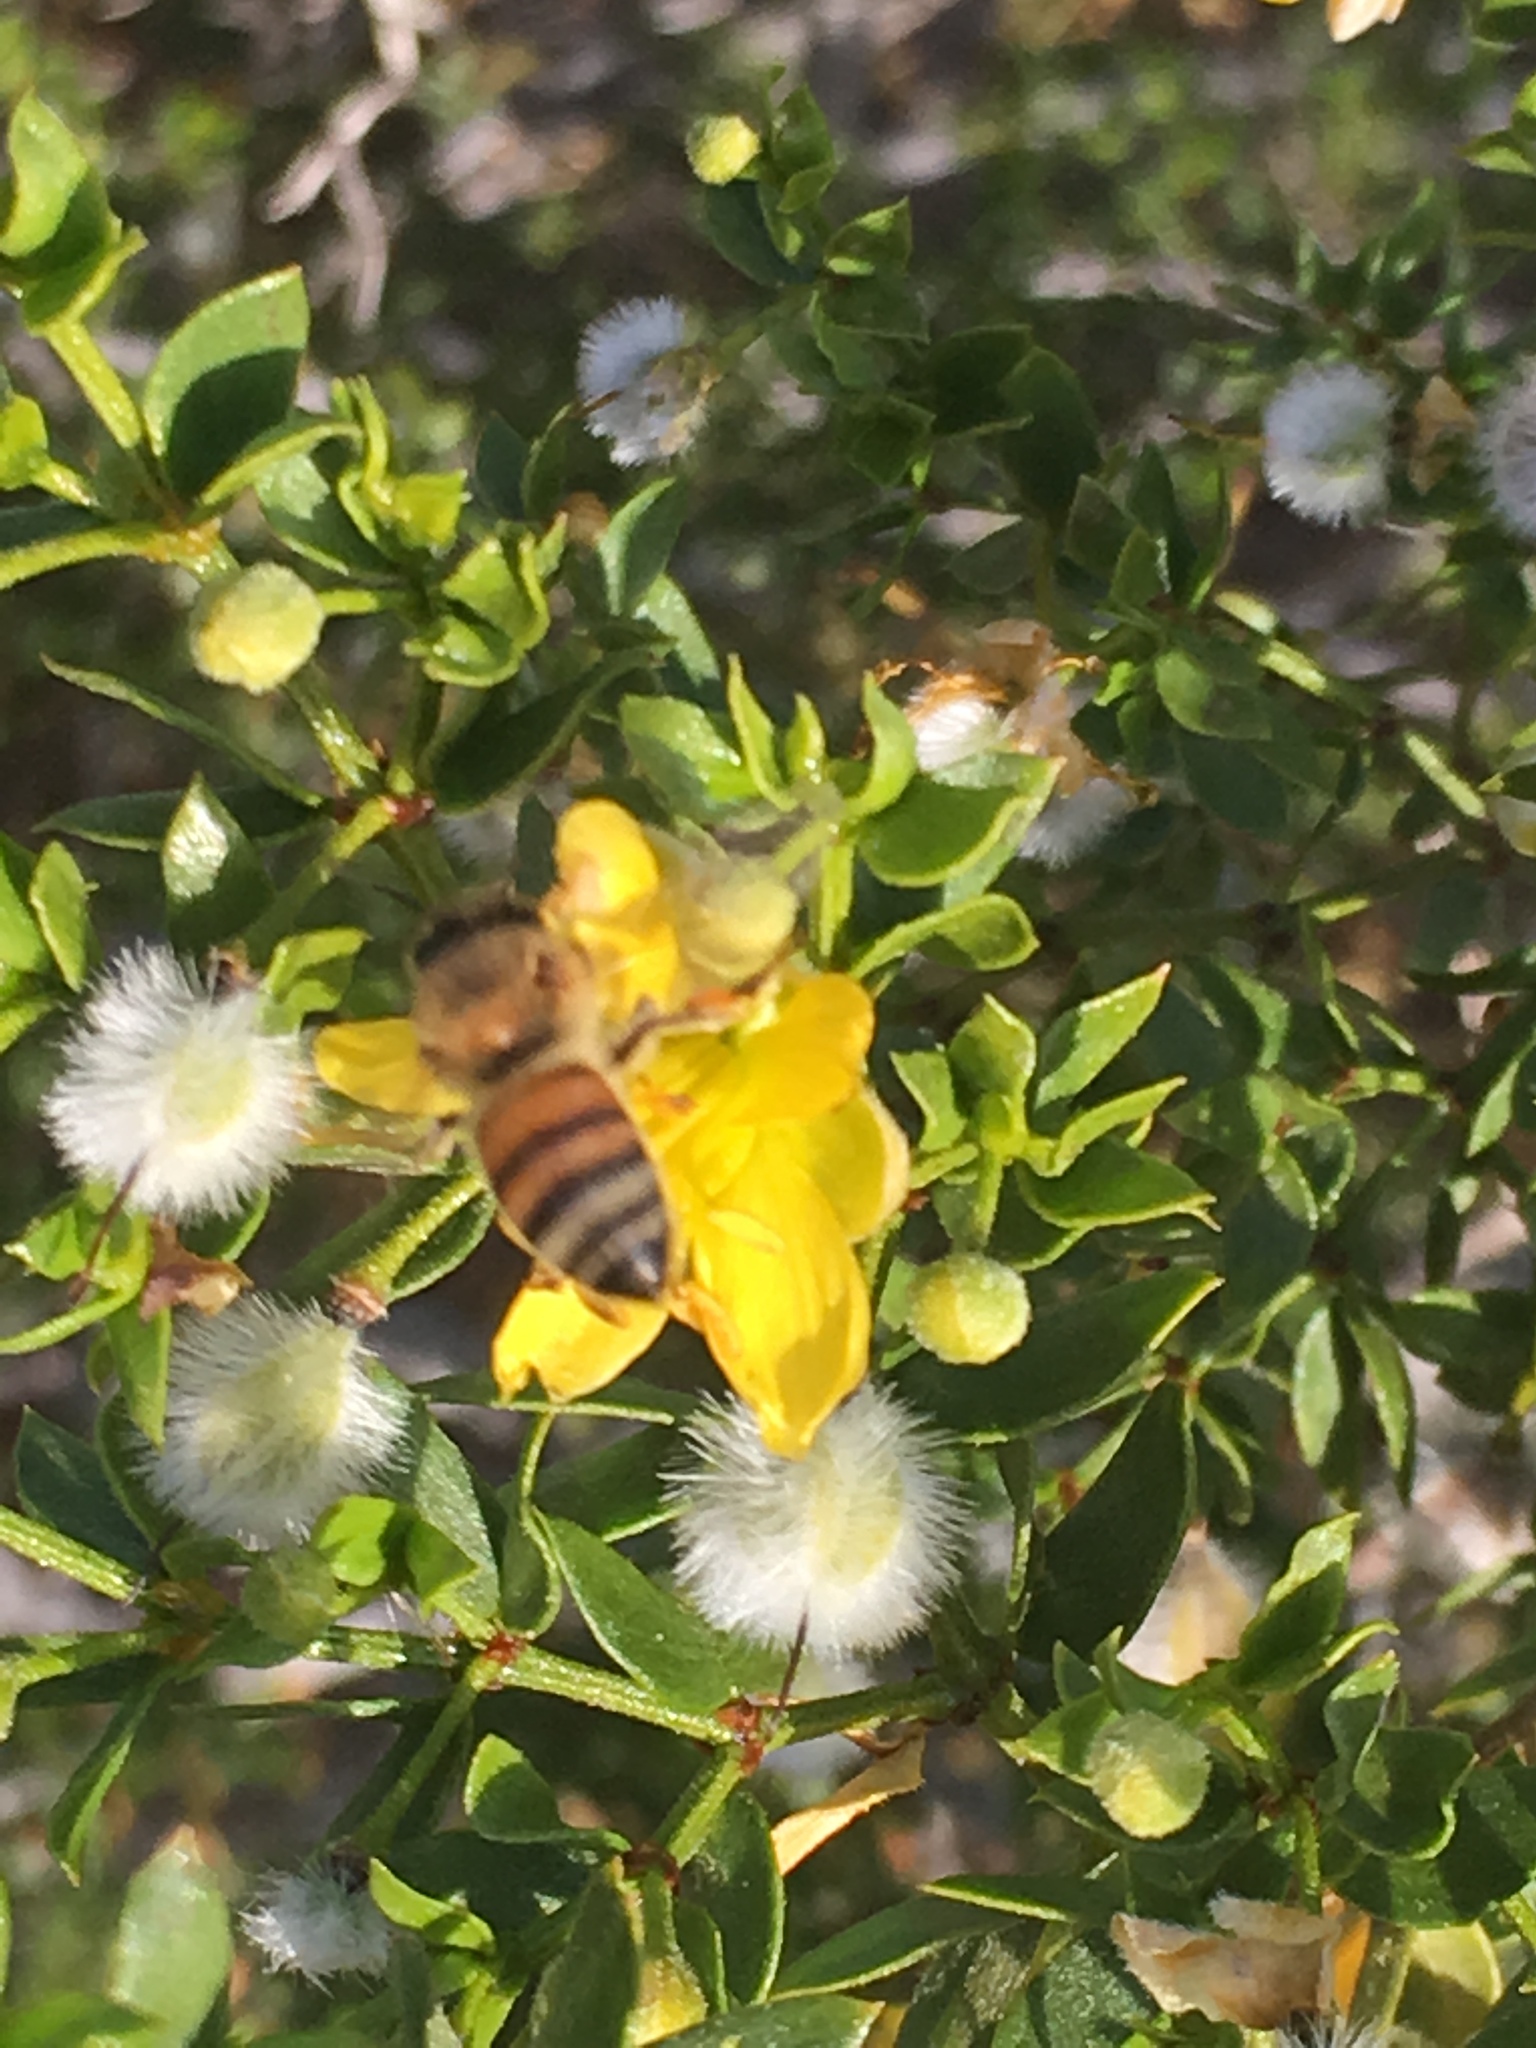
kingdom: Plantae
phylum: Tracheophyta
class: Magnoliopsida
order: Zygophyllales
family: Zygophyllaceae
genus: Larrea
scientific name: Larrea tridentata
